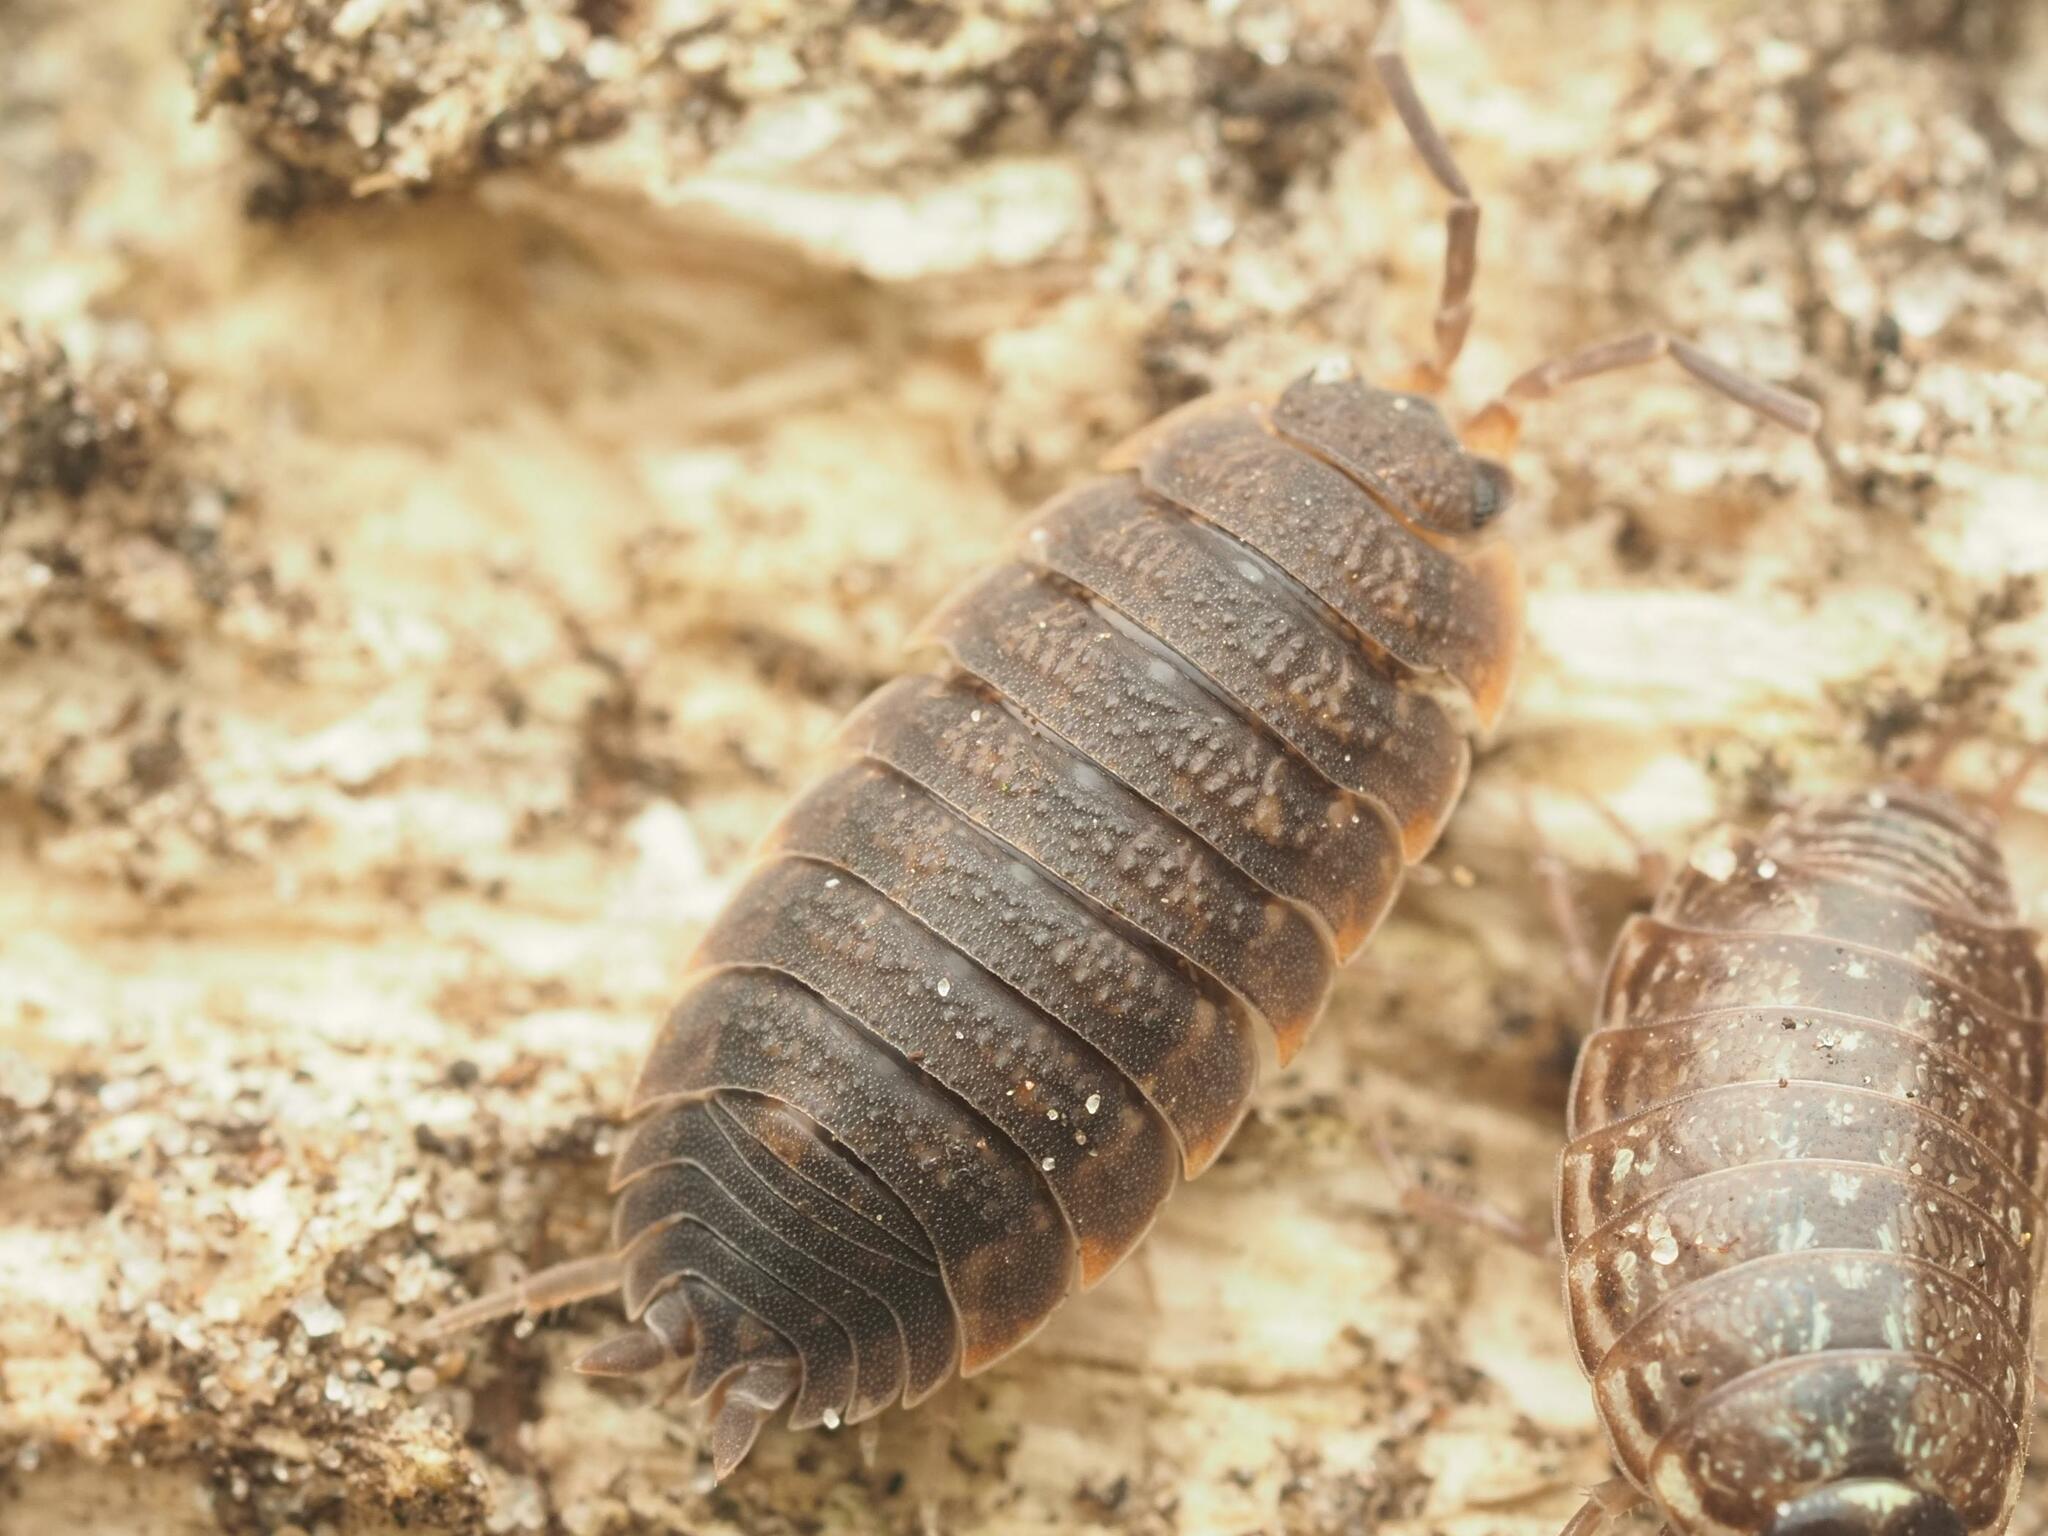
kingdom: Animalia
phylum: Arthropoda
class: Malacostraca
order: Isopoda
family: Porcellionidae
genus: Porcellio
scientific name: Porcellio scaber
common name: Common rough woodlouse
